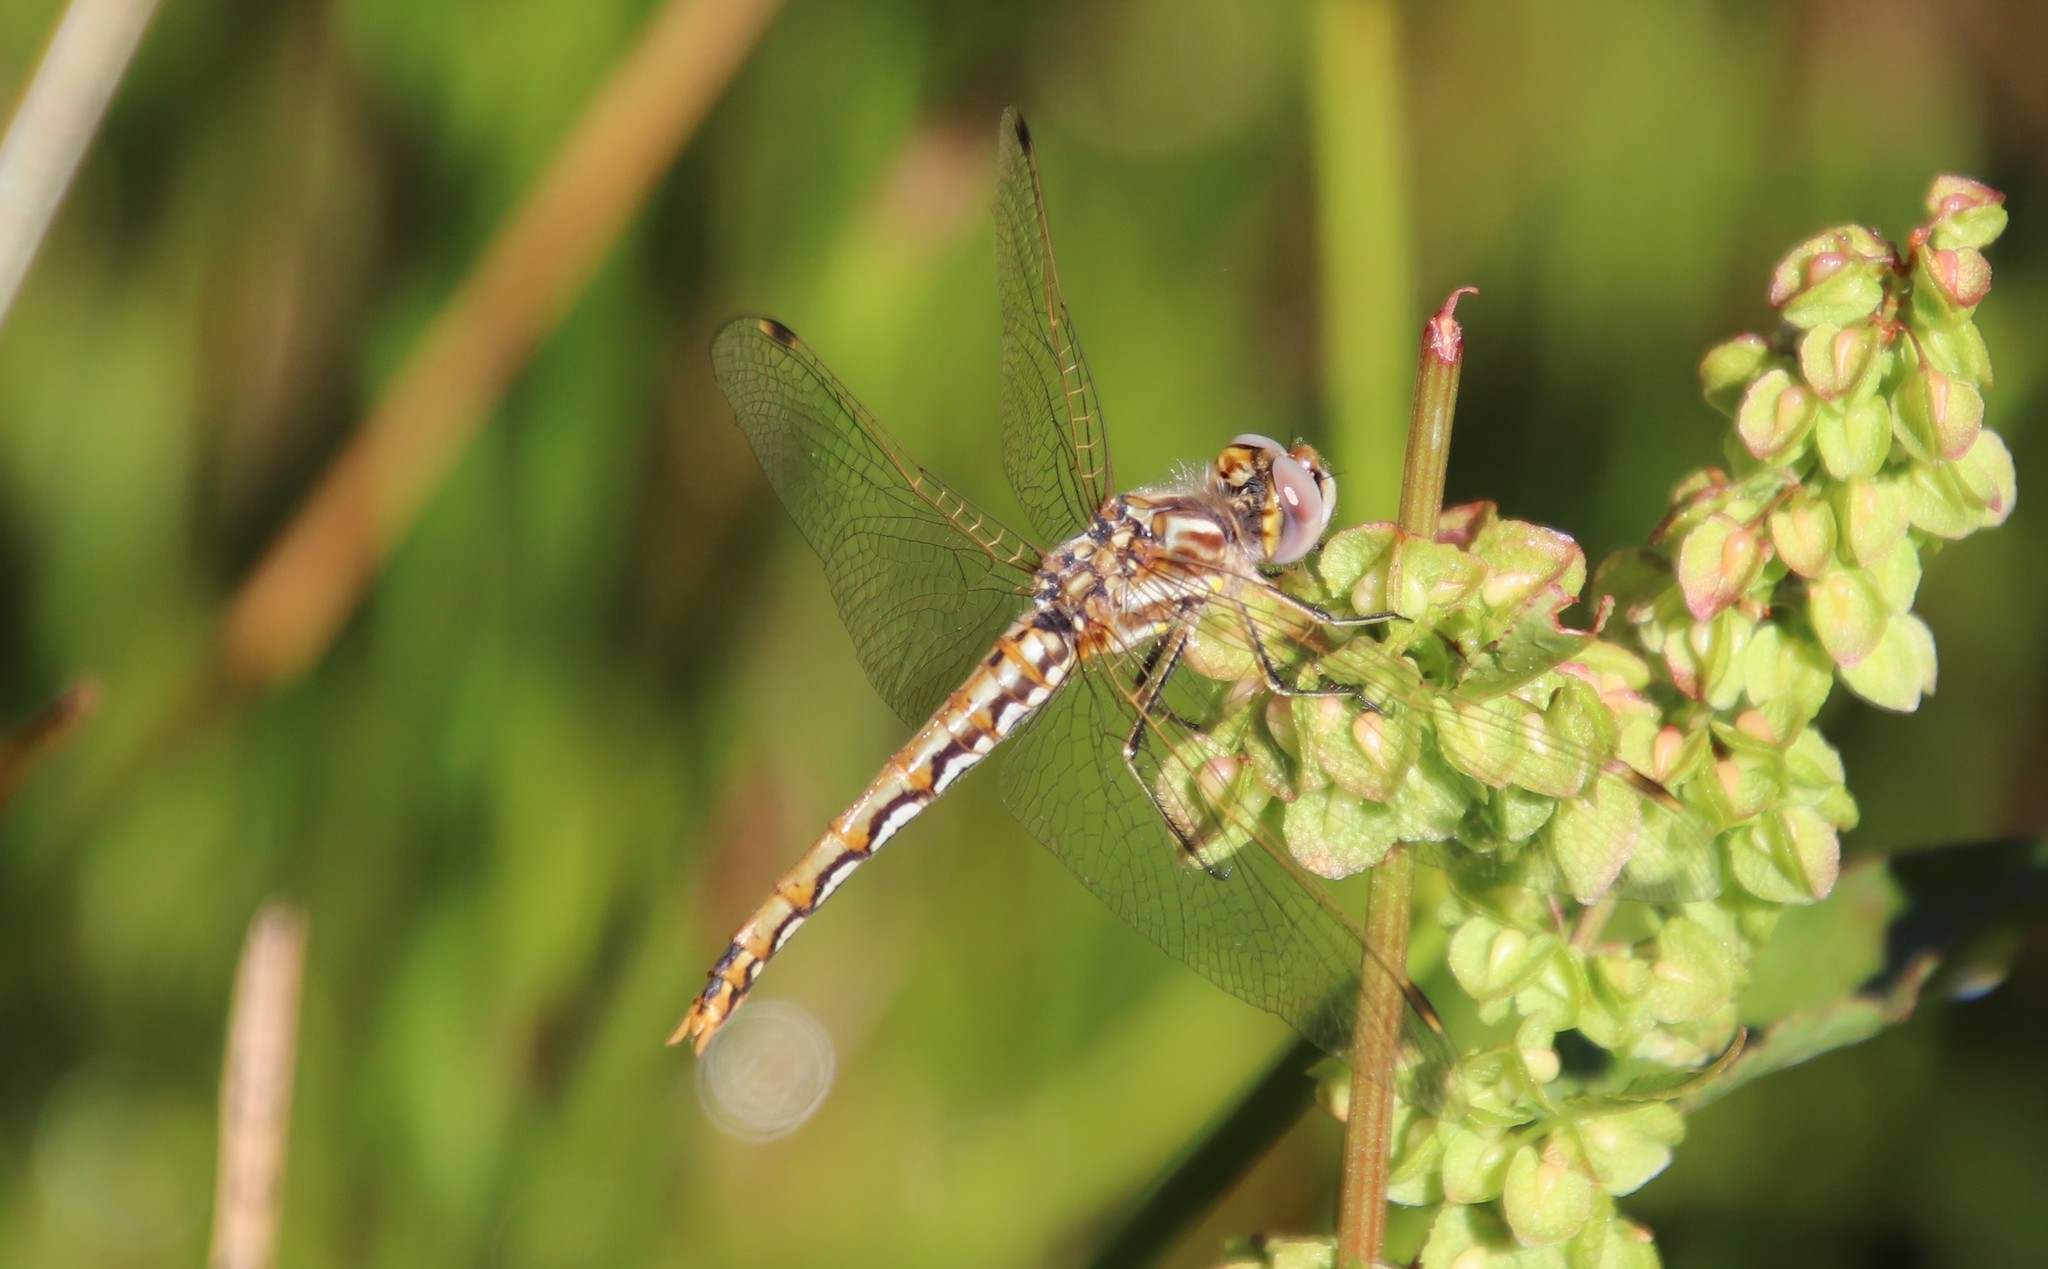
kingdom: Animalia
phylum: Arthropoda
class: Insecta
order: Odonata
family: Libellulidae
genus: Sympetrum
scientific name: Sympetrum corruptum
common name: Variegated meadowhawk
